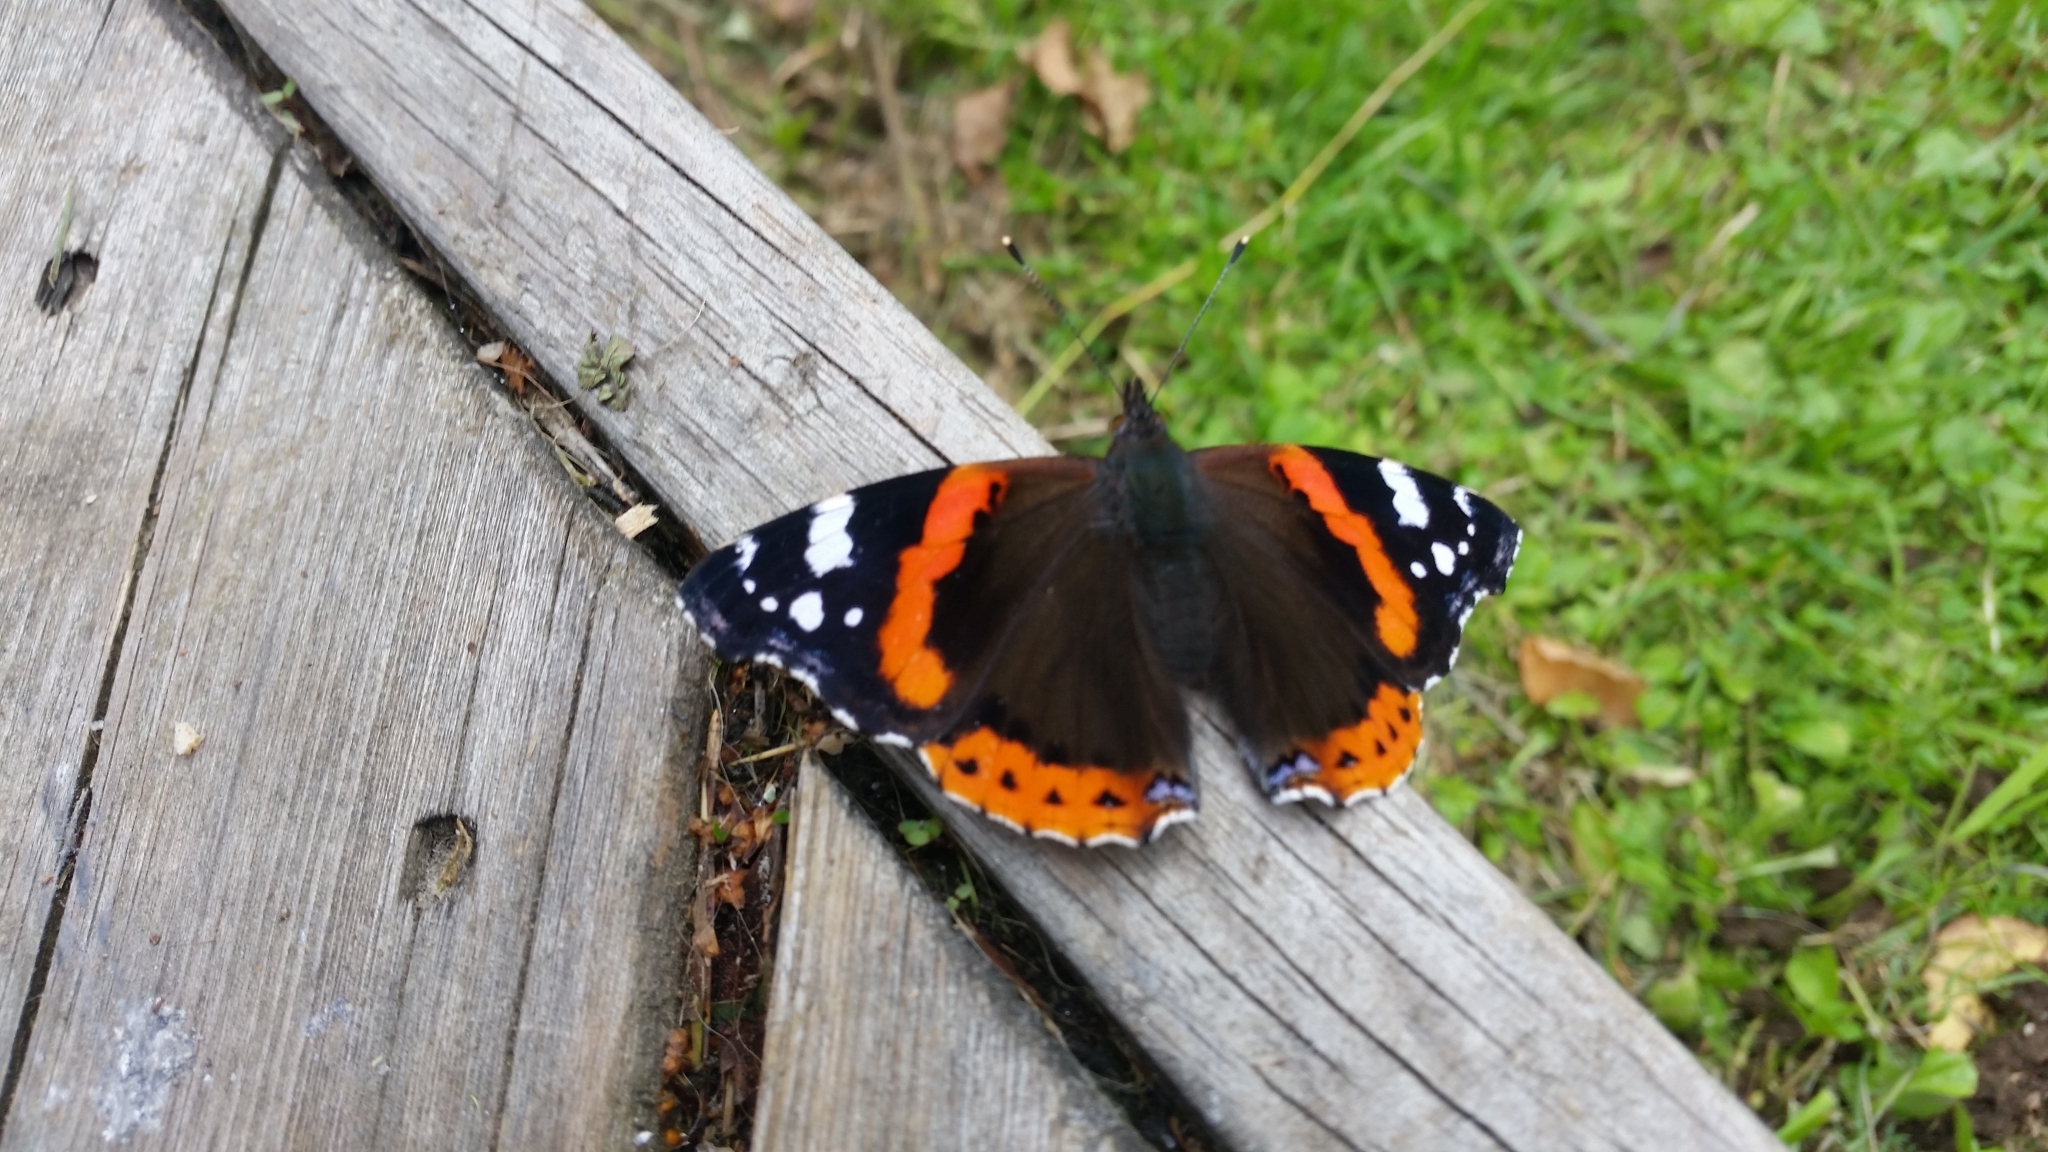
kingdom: Animalia
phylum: Arthropoda
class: Insecta
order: Lepidoptera
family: Nymphalidae
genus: Vanessa
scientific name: Vanessa atalanta
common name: Red admiral
